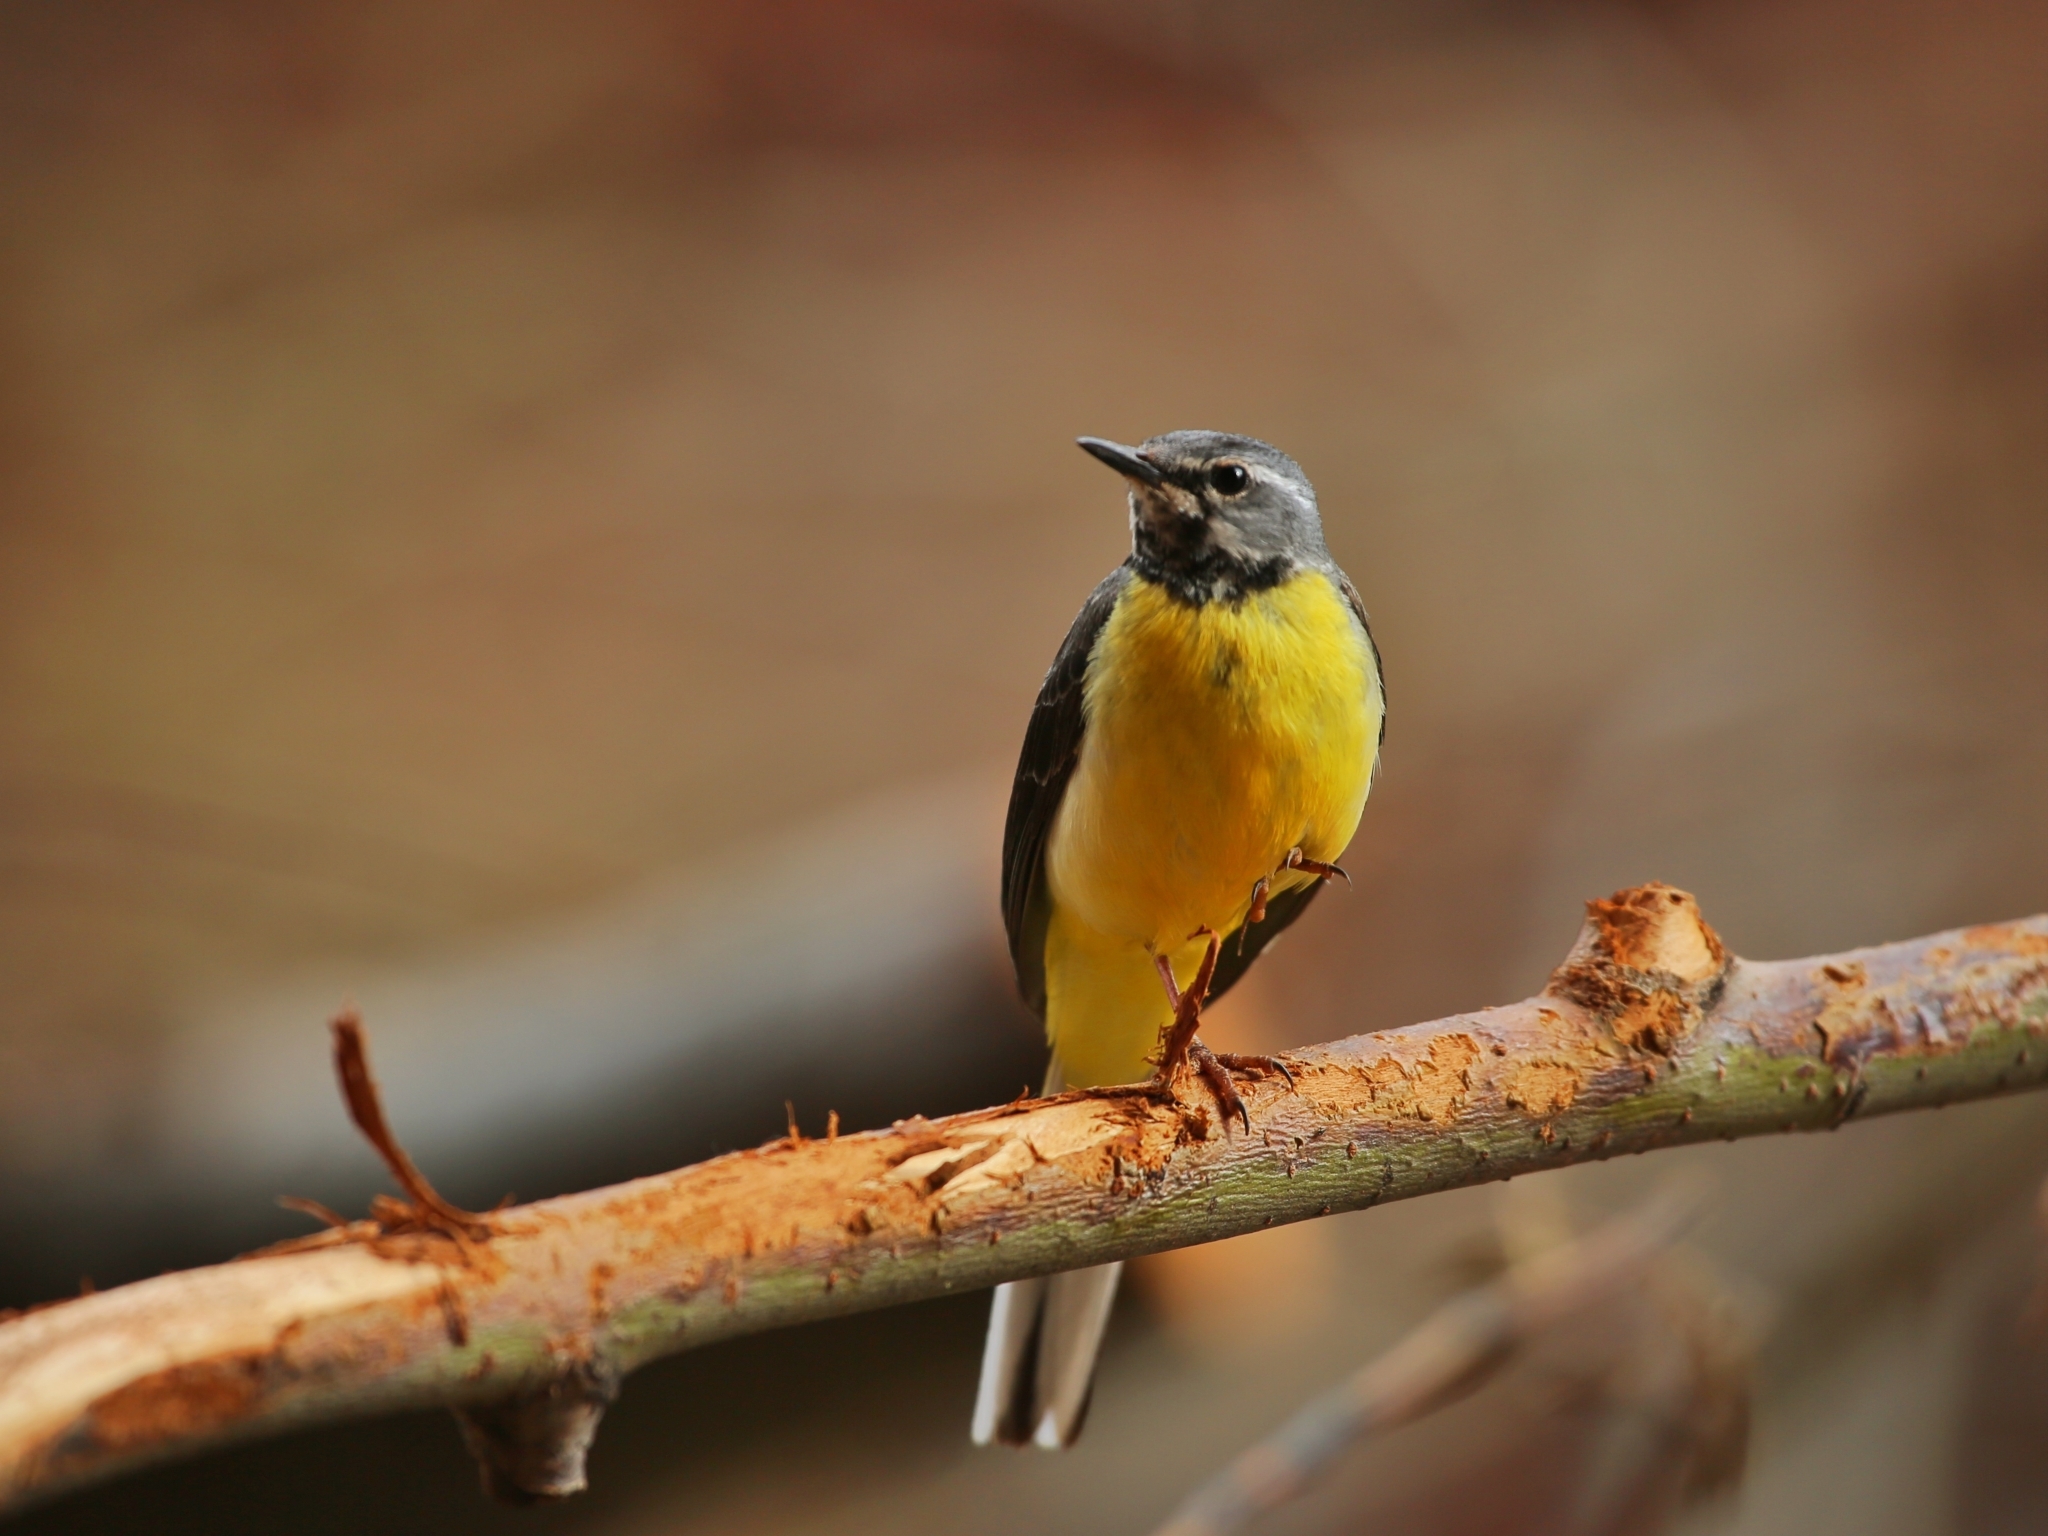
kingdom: Animalia
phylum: Chordata
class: Aves
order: Passeriformes
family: Motacillidae
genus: Motacilla
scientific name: Motacilla cinerea
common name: Grey wagtail
